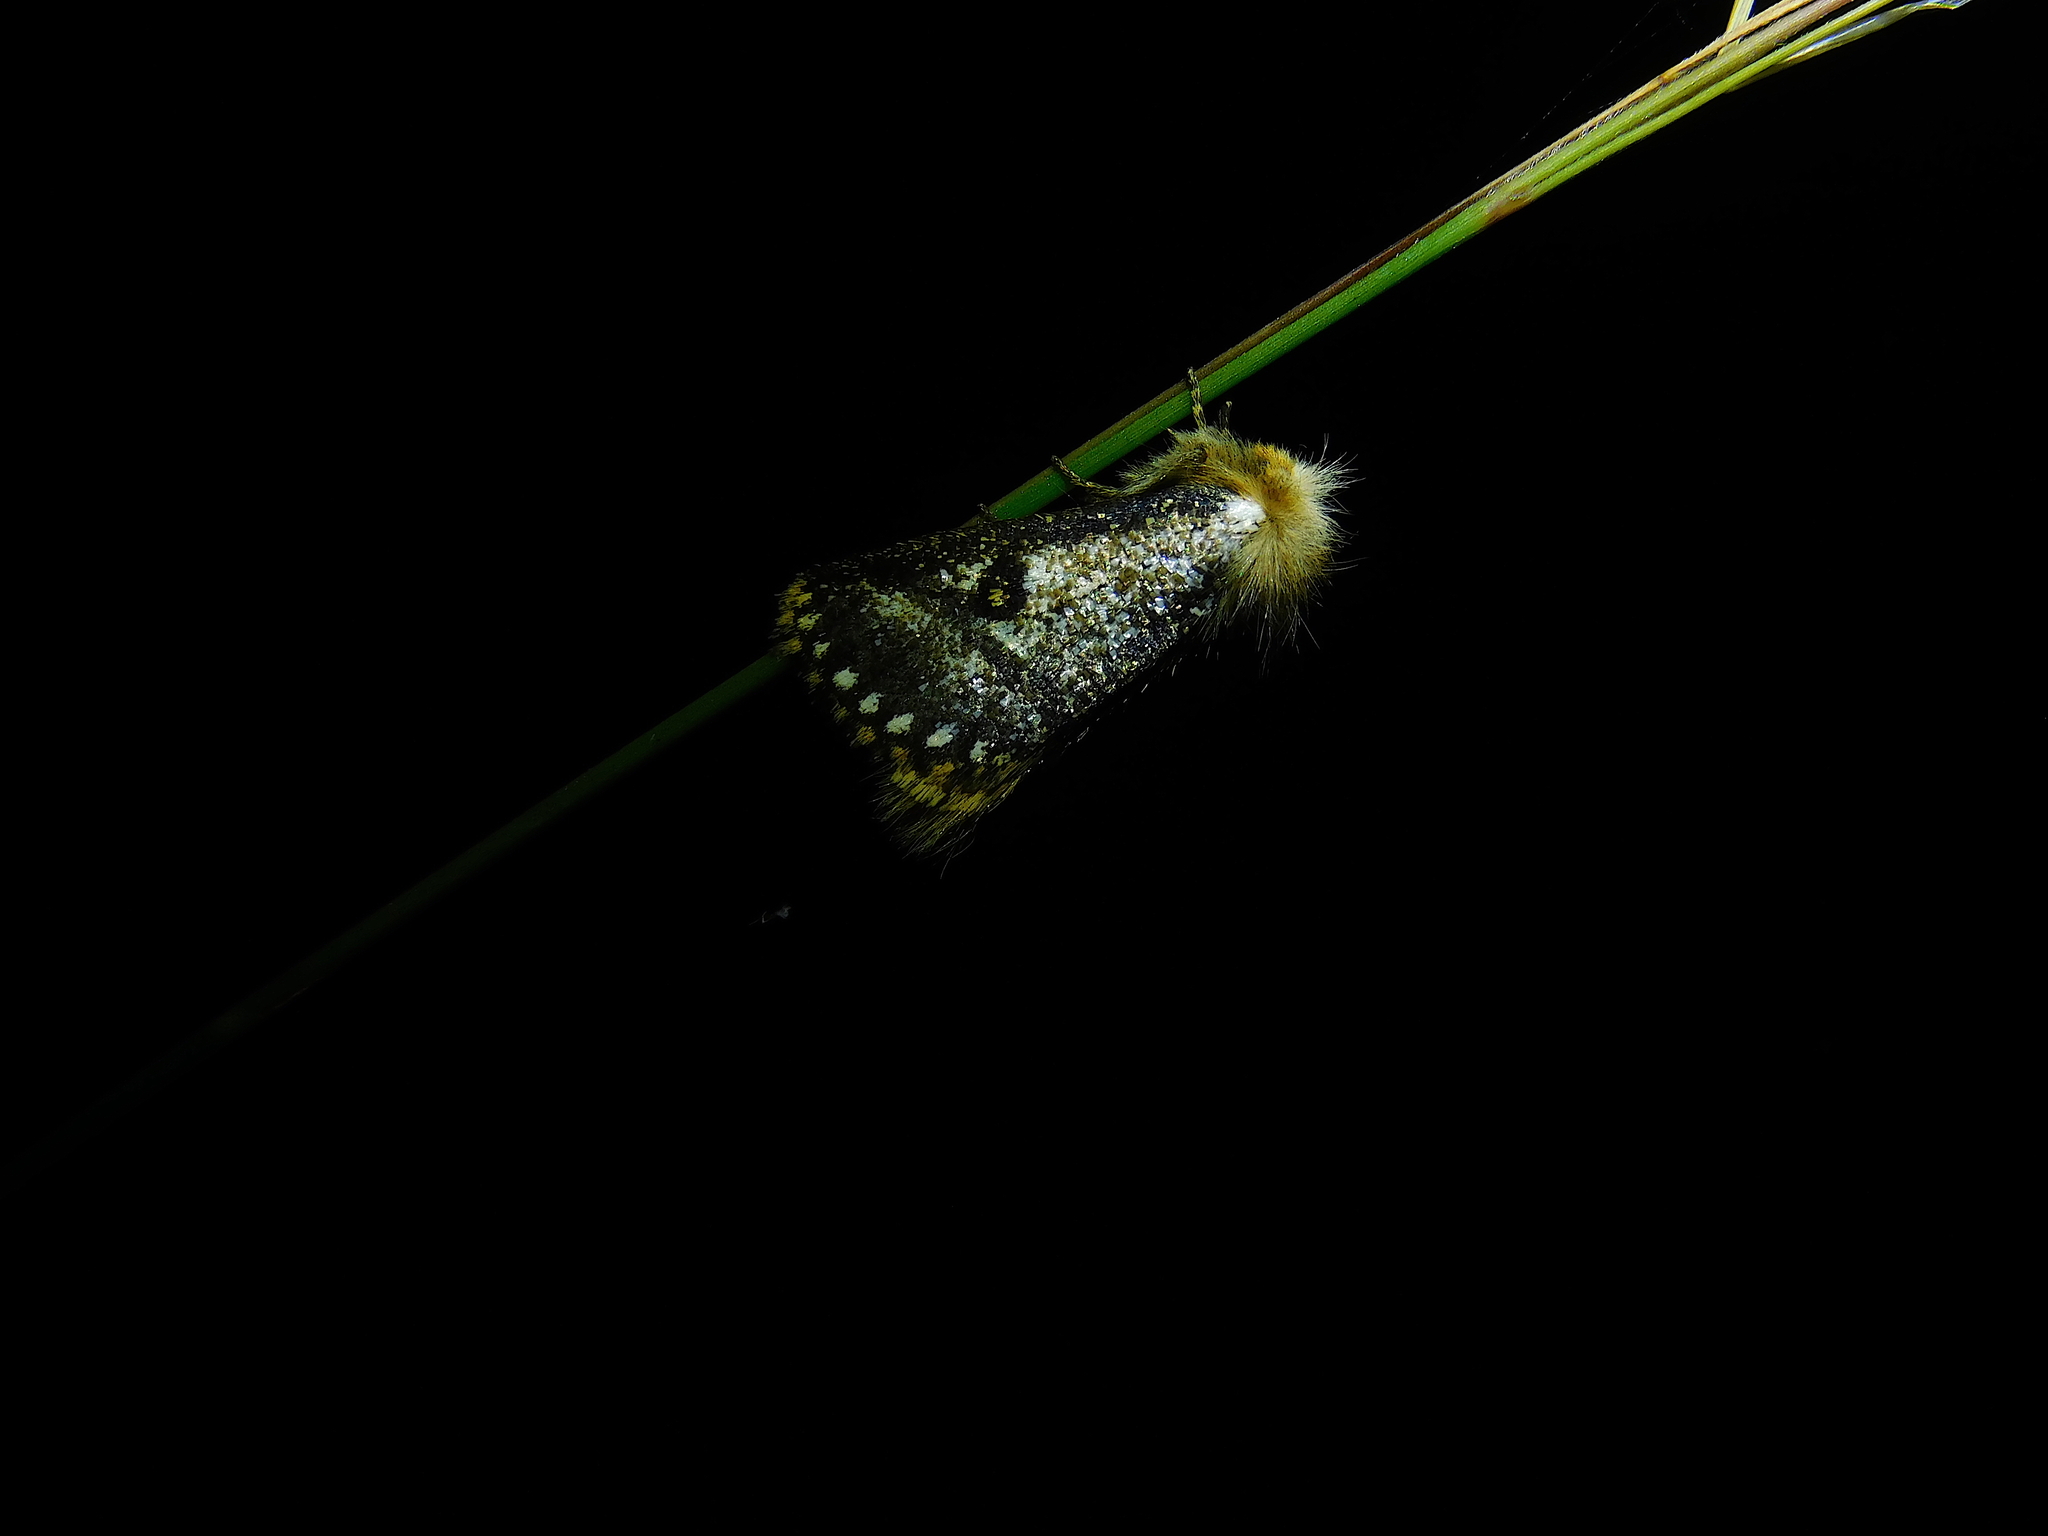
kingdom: Animalia
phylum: Arthropoda
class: Insecta
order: Lepidoptera
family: Notodontidae
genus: Epicoma
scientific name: Epicoma contristis
